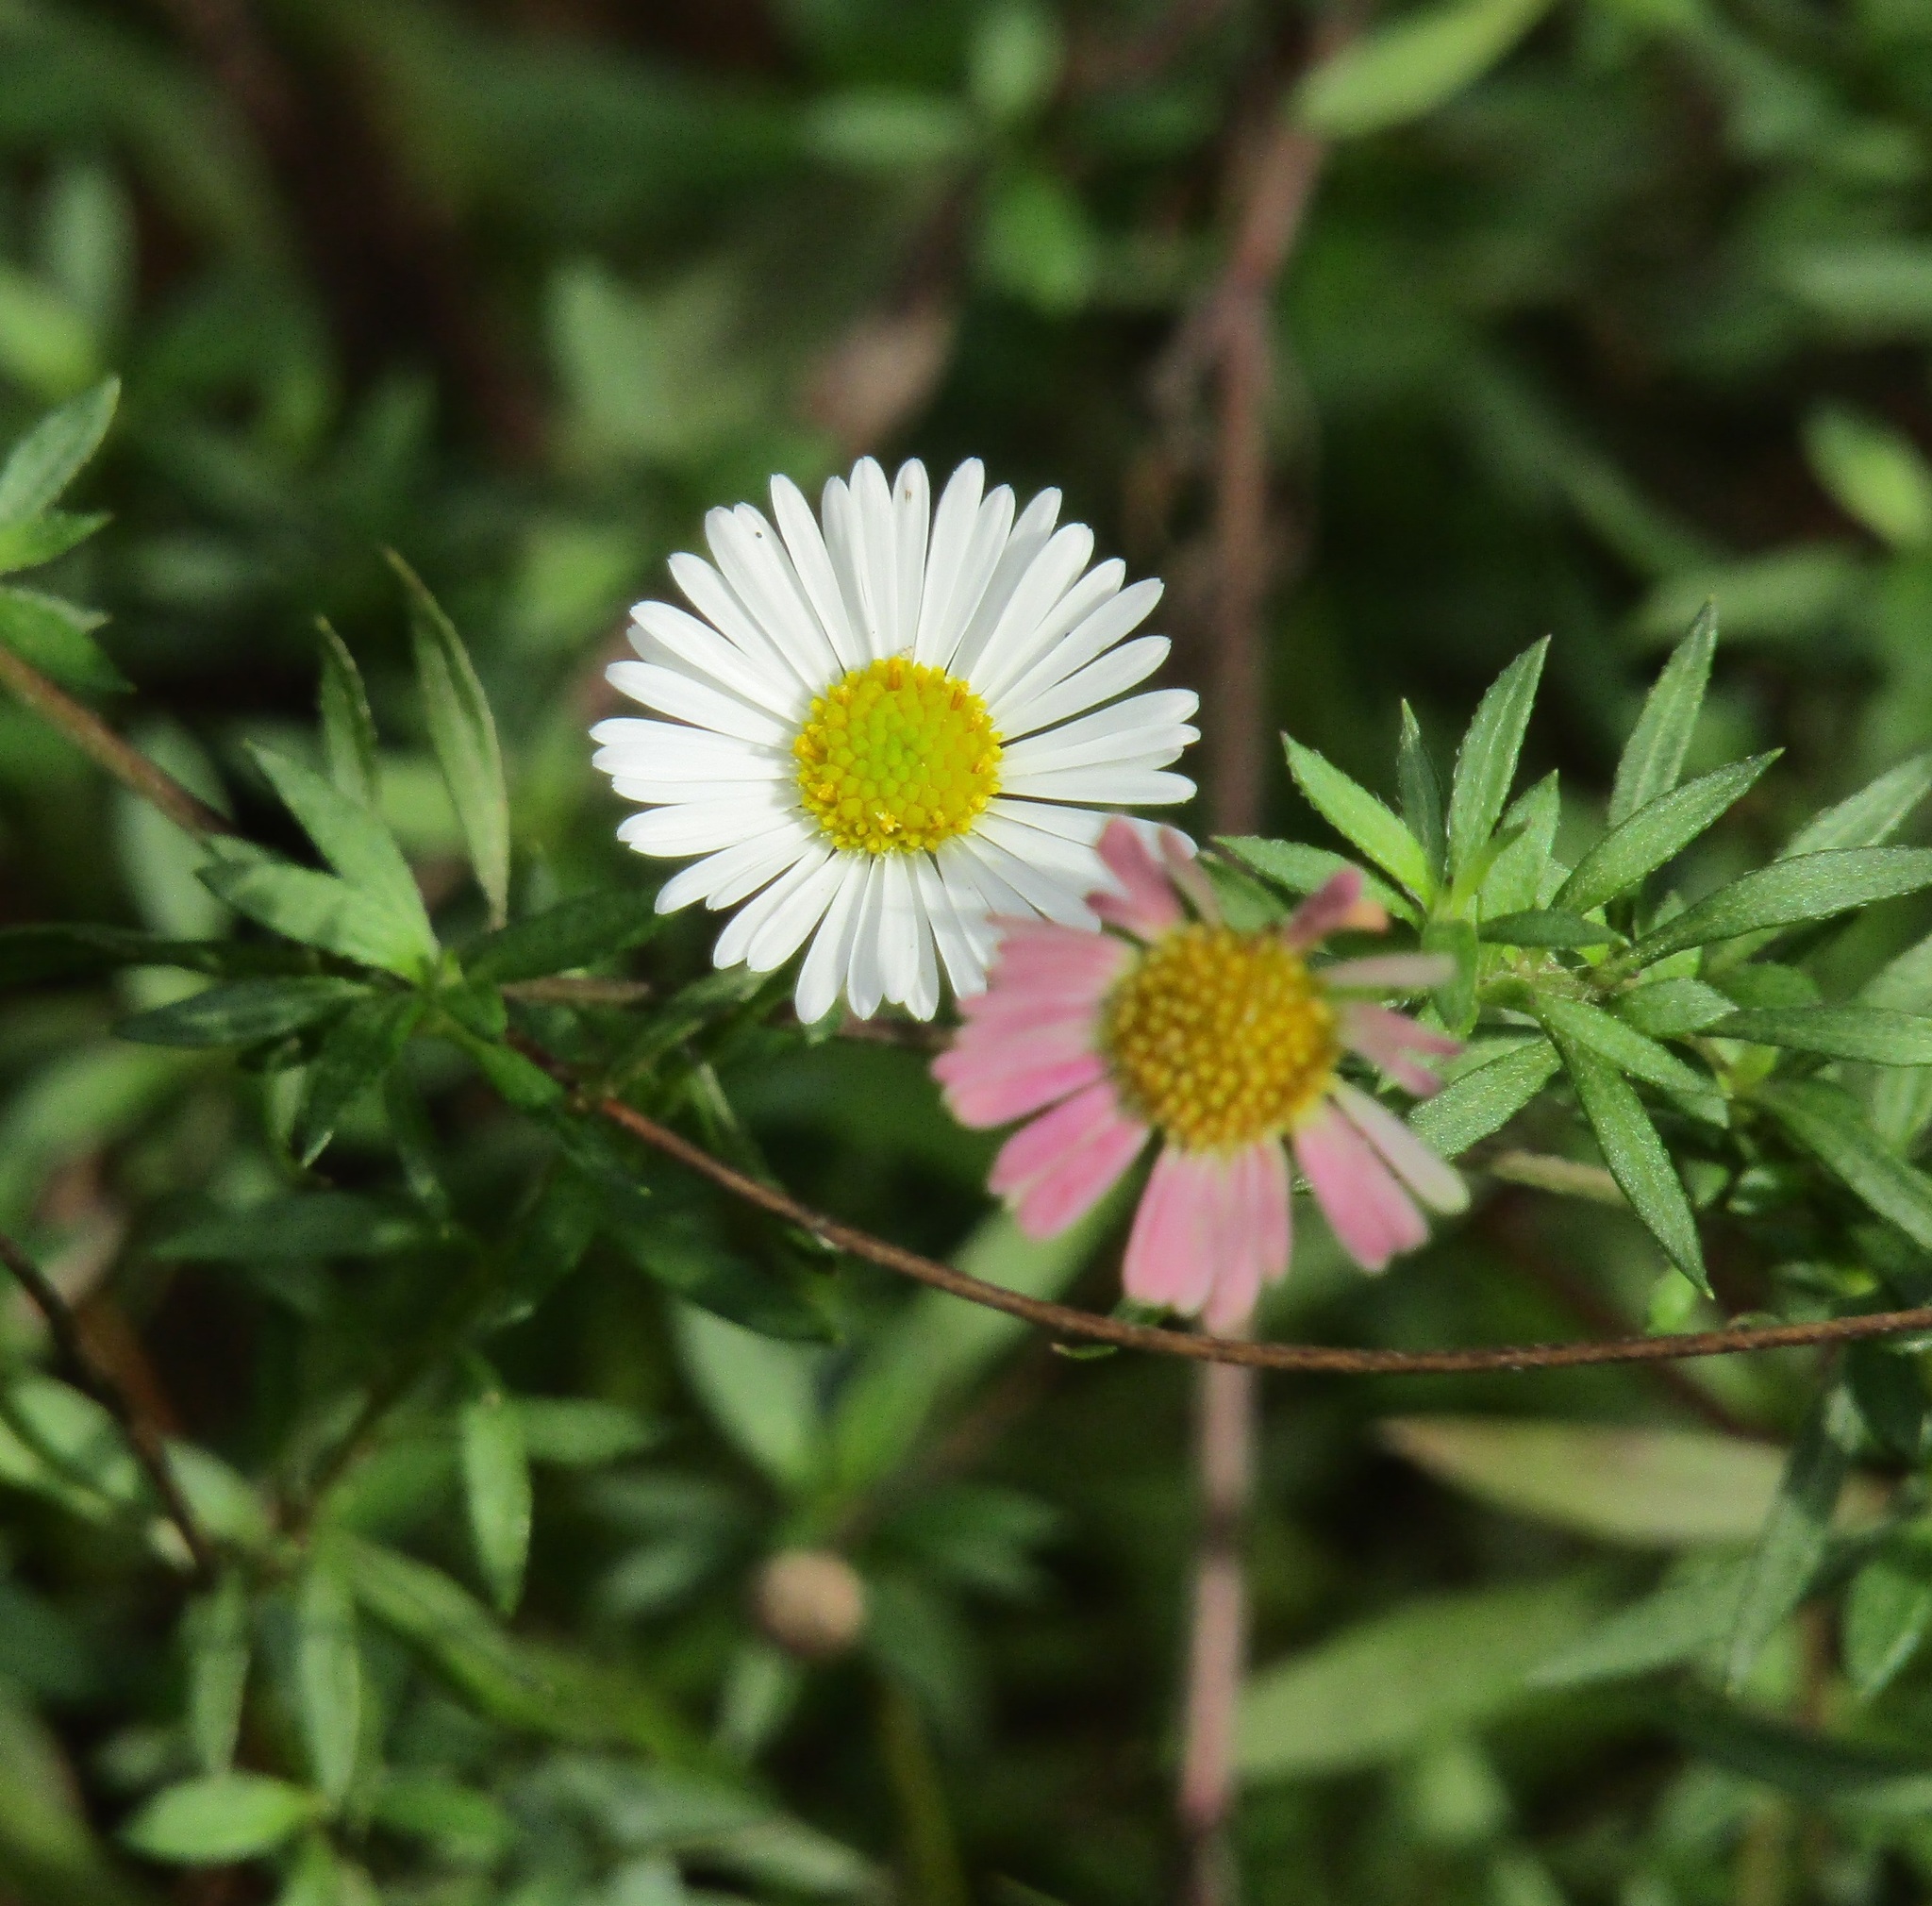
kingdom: Plantae
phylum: Tracheophyta
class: Magnoliopsida
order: Asterales
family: Asteraceae
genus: Erigeron
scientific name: Erigeron karvinskianus
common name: Mexican fleabane
